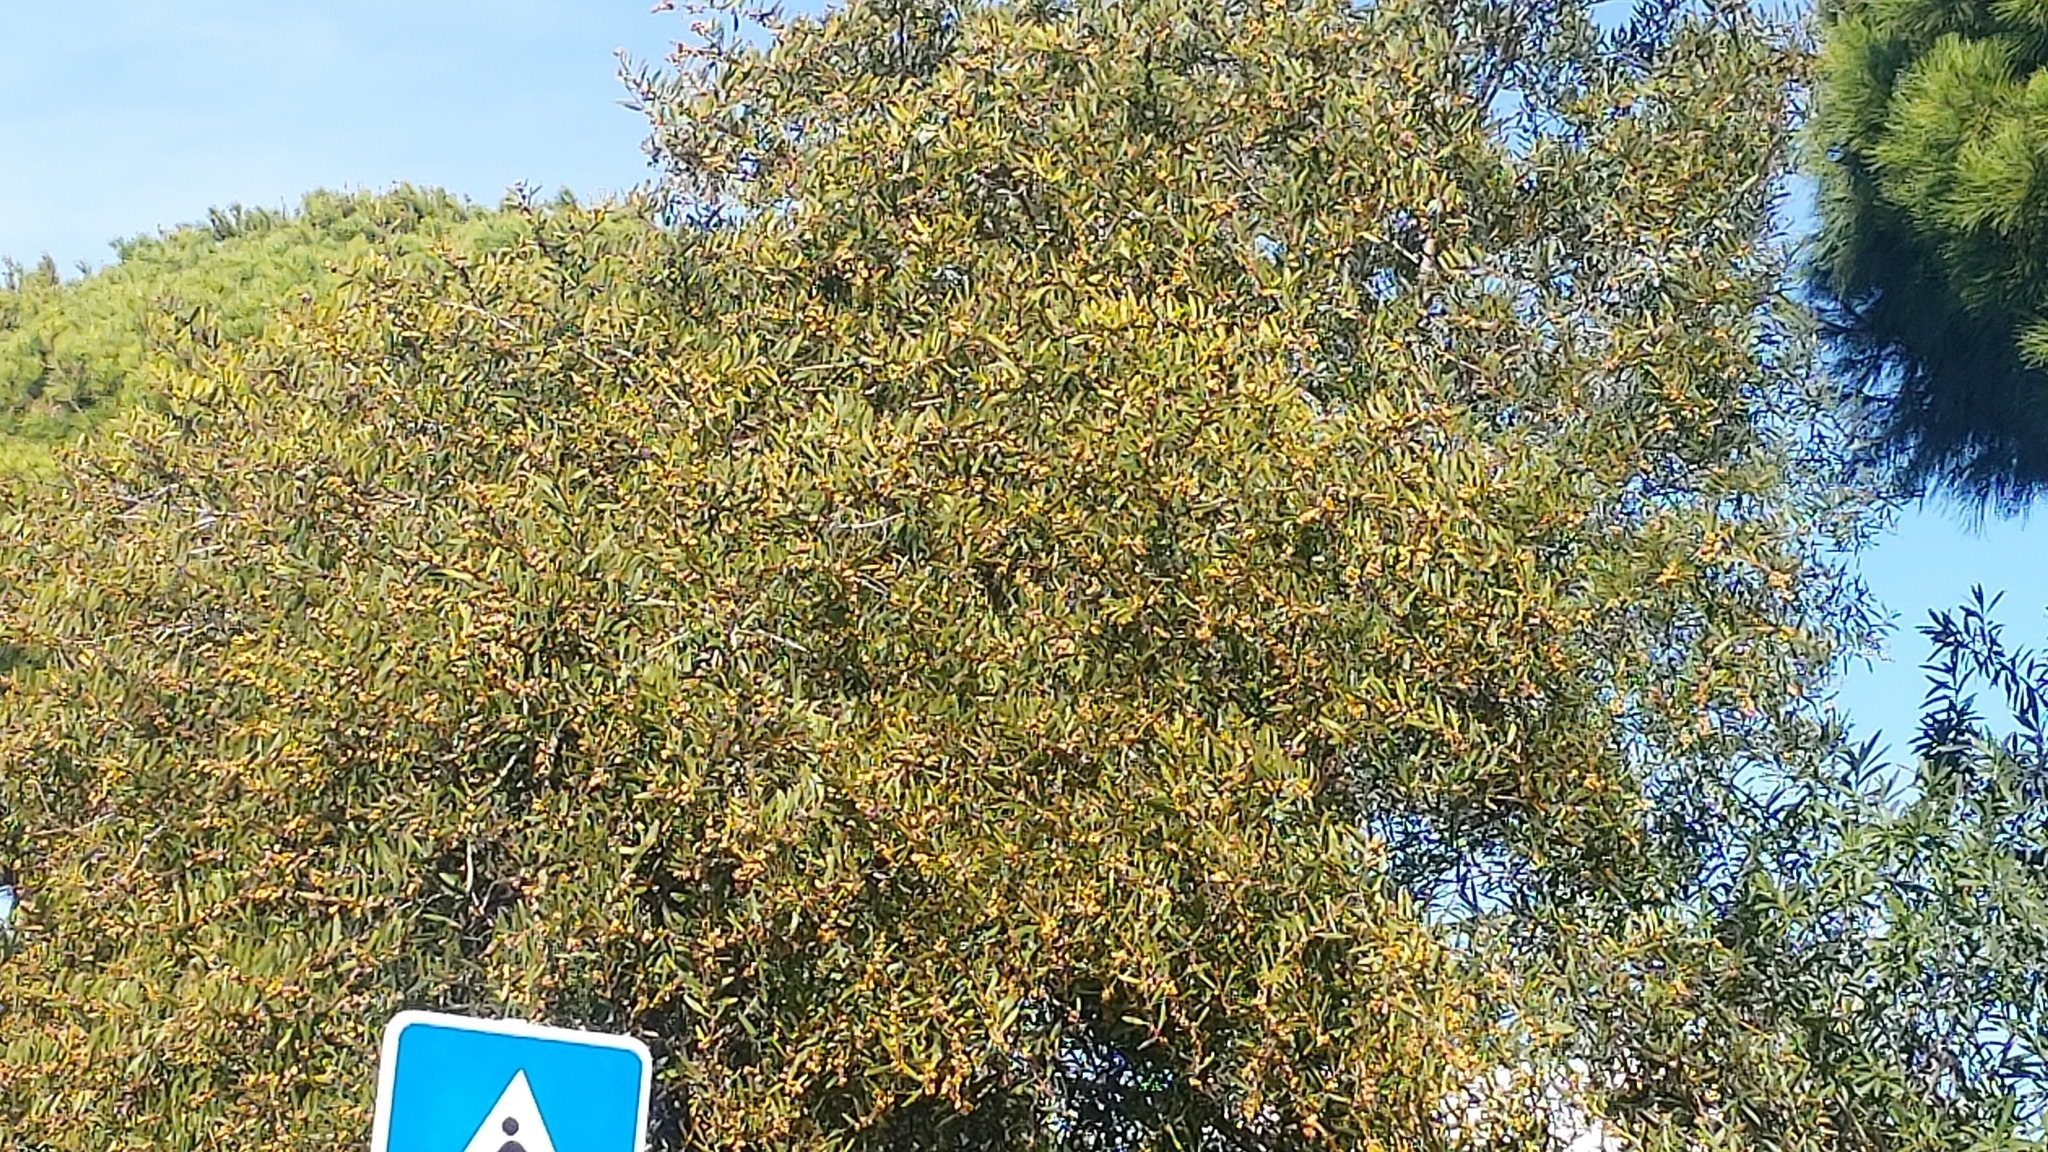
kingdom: Animalia
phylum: Arthropoda
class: Insecta
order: Hymenoptera
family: Pteromalidae
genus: Trichilogaster
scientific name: Trichilogaster acaciaelongifoliae
